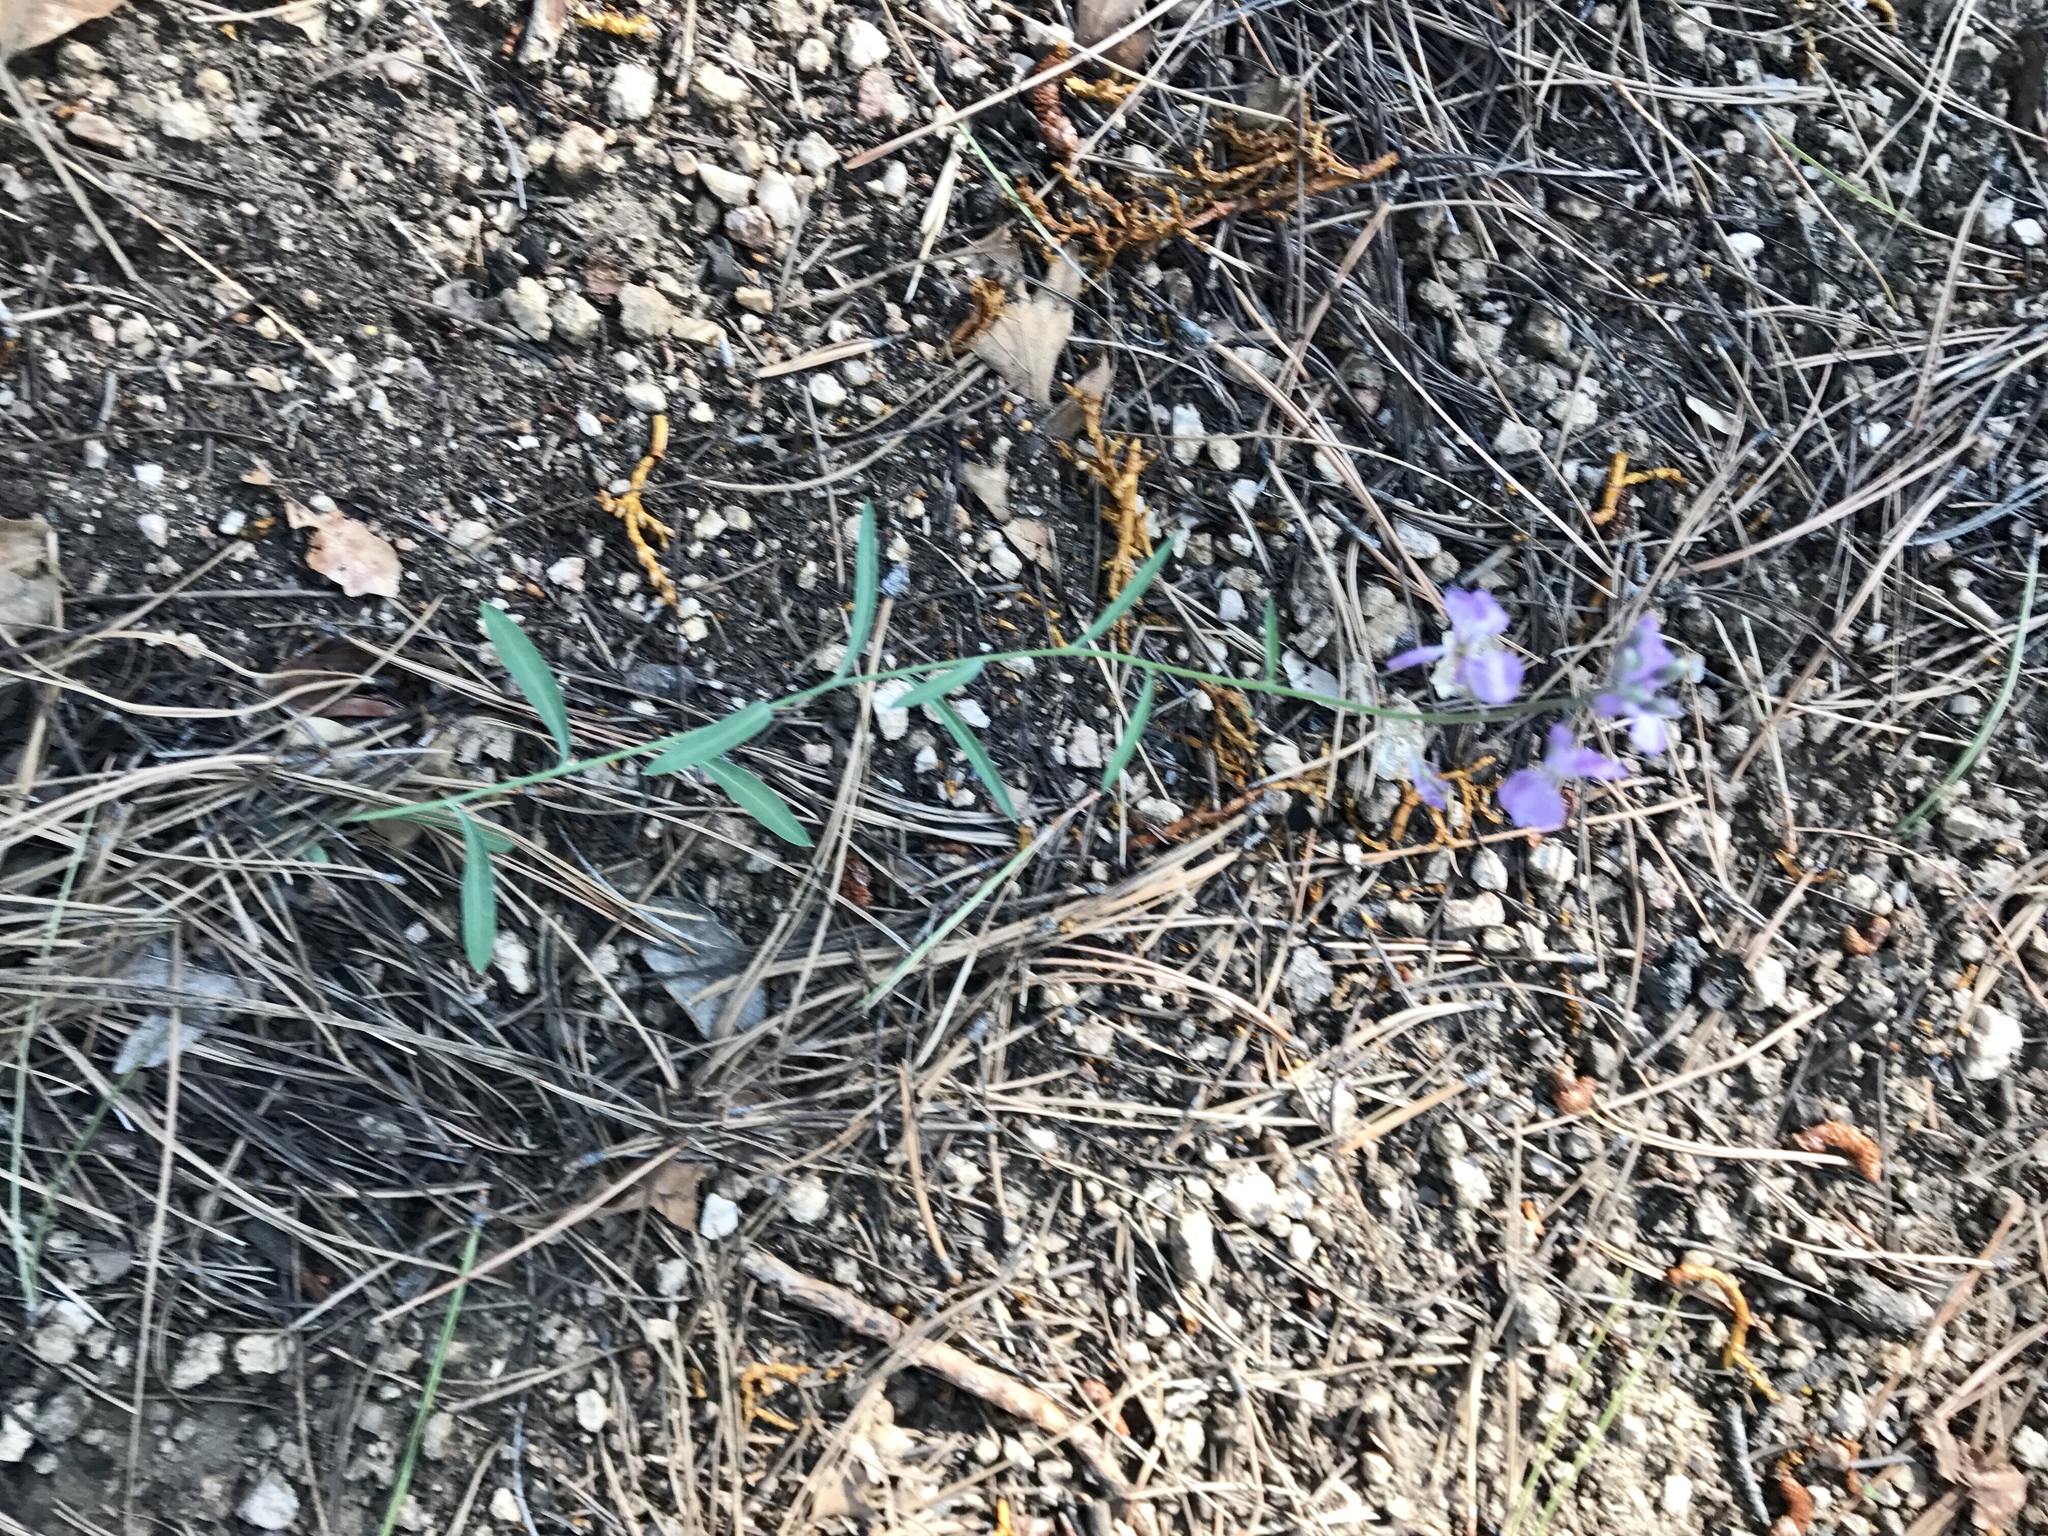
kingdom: Plantae
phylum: Tracheophyta
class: Magnoliopsida
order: Brassicales
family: Brassicaceae
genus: Hesperidanthus
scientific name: Hesperidanthus linearifolius
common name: Slim-leaf plains mustard
